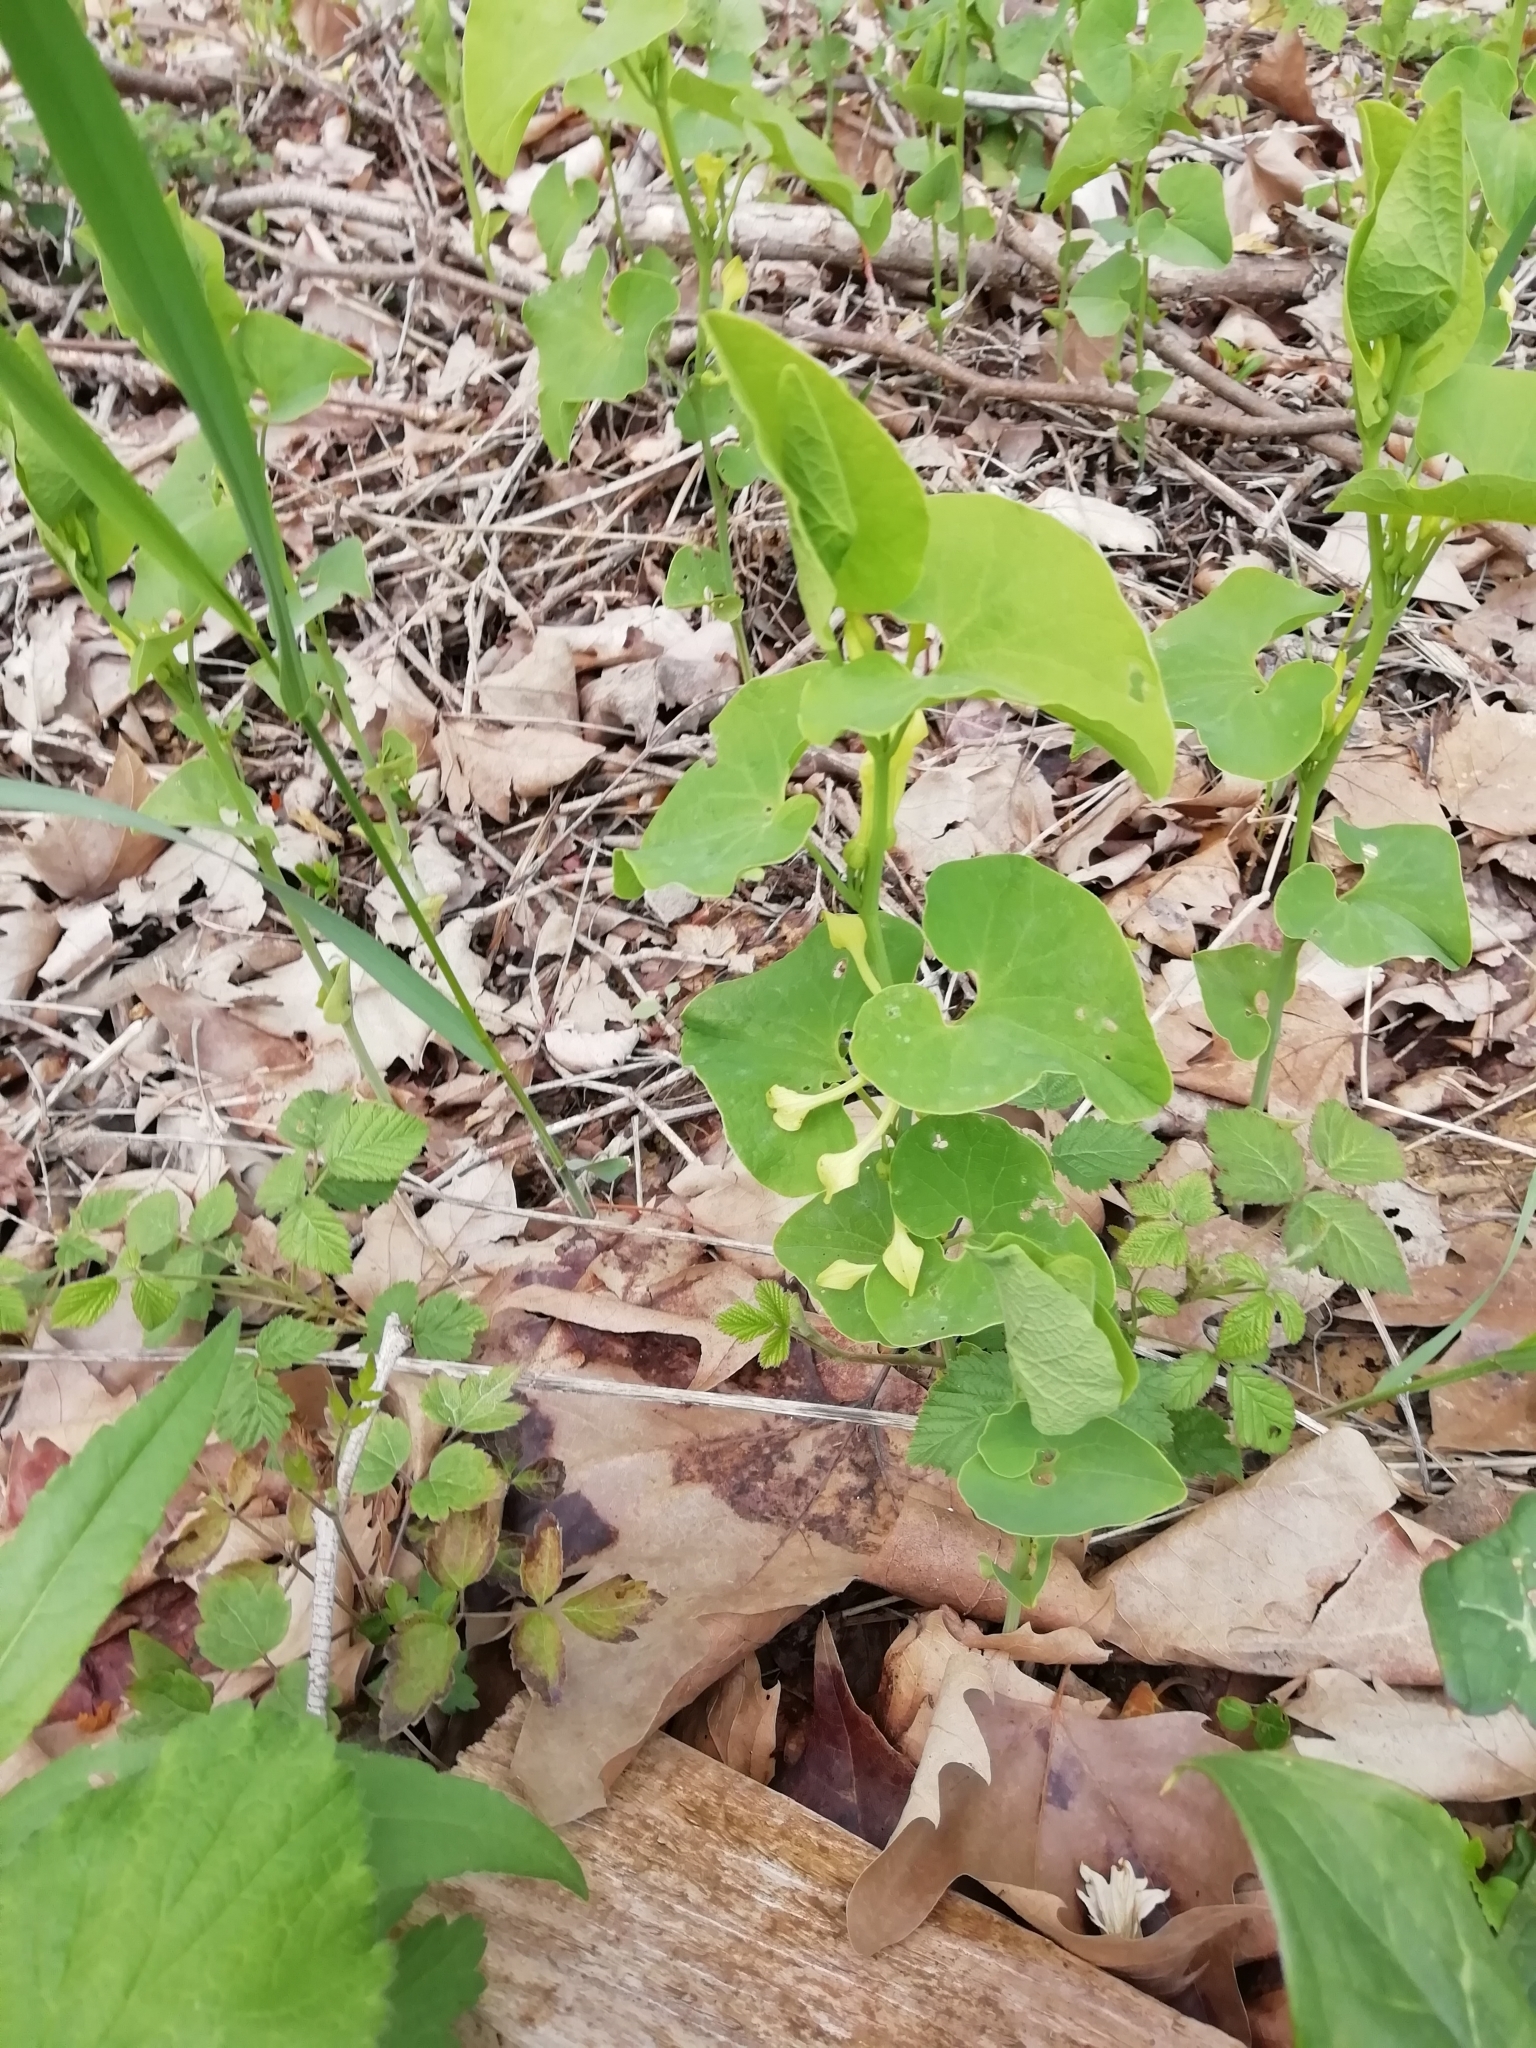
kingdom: Plantae
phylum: Tracheophyta
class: Magnoliopsida
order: Piperales
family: Aristolochiaceae
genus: Aristolochia
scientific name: Aristolochia clematitis
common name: Birthwort
